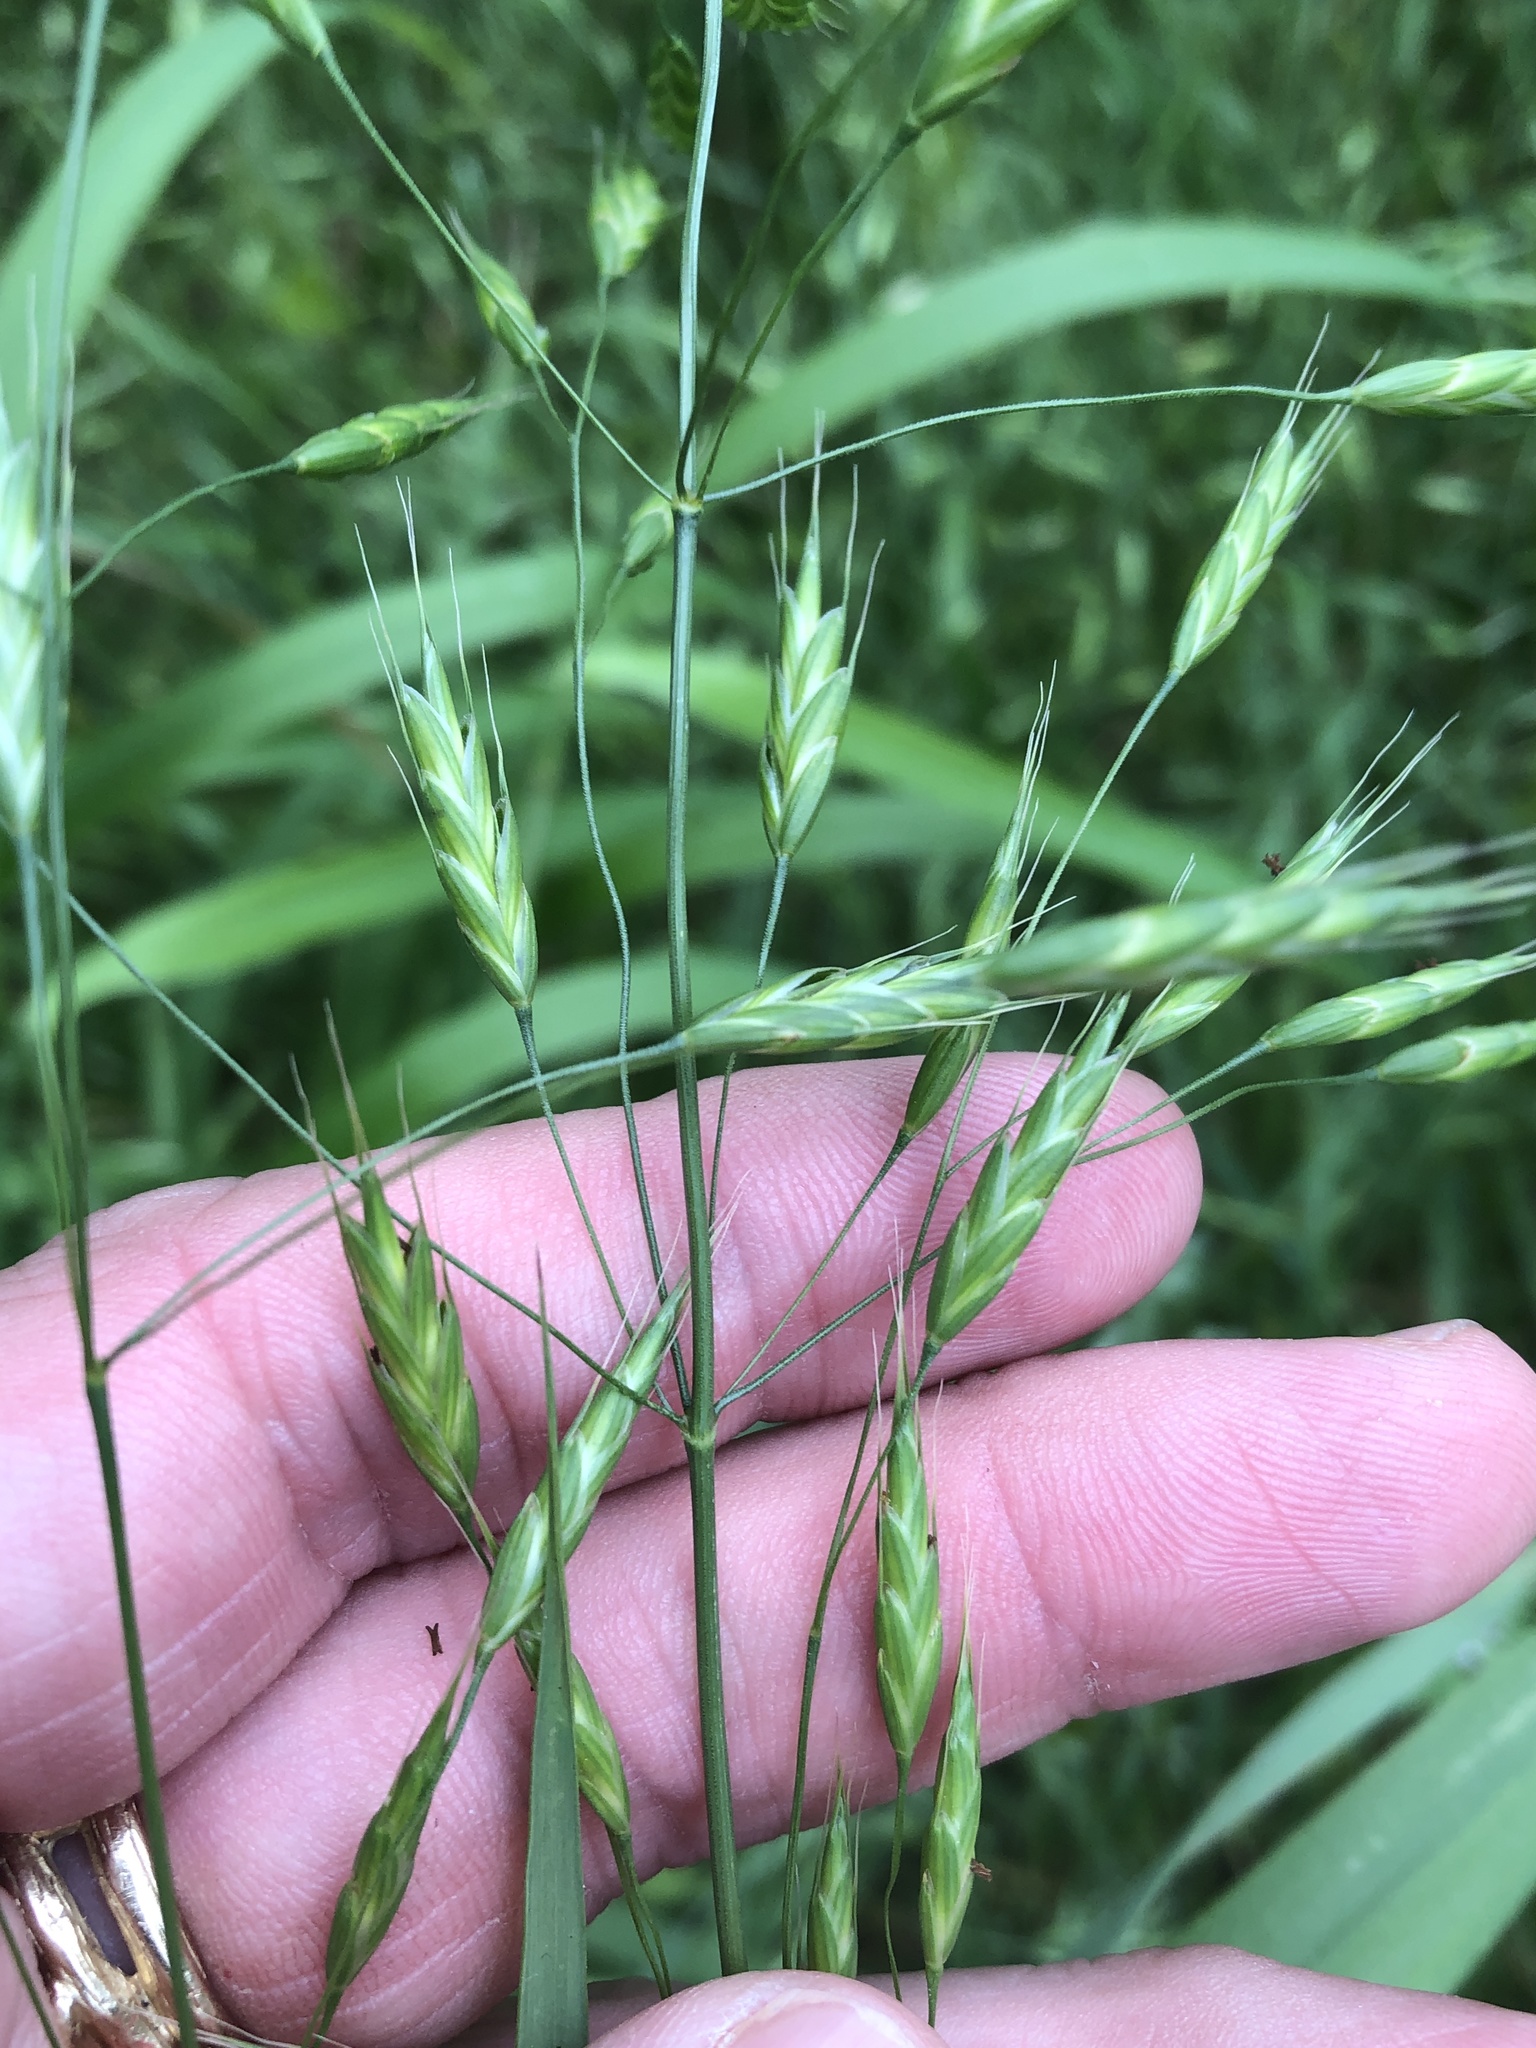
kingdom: Plantae
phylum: Tracheophyta
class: Liliopsida
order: Poales
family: Poaceae
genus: Bromus
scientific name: Bromus japonicus
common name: Japanese brome
